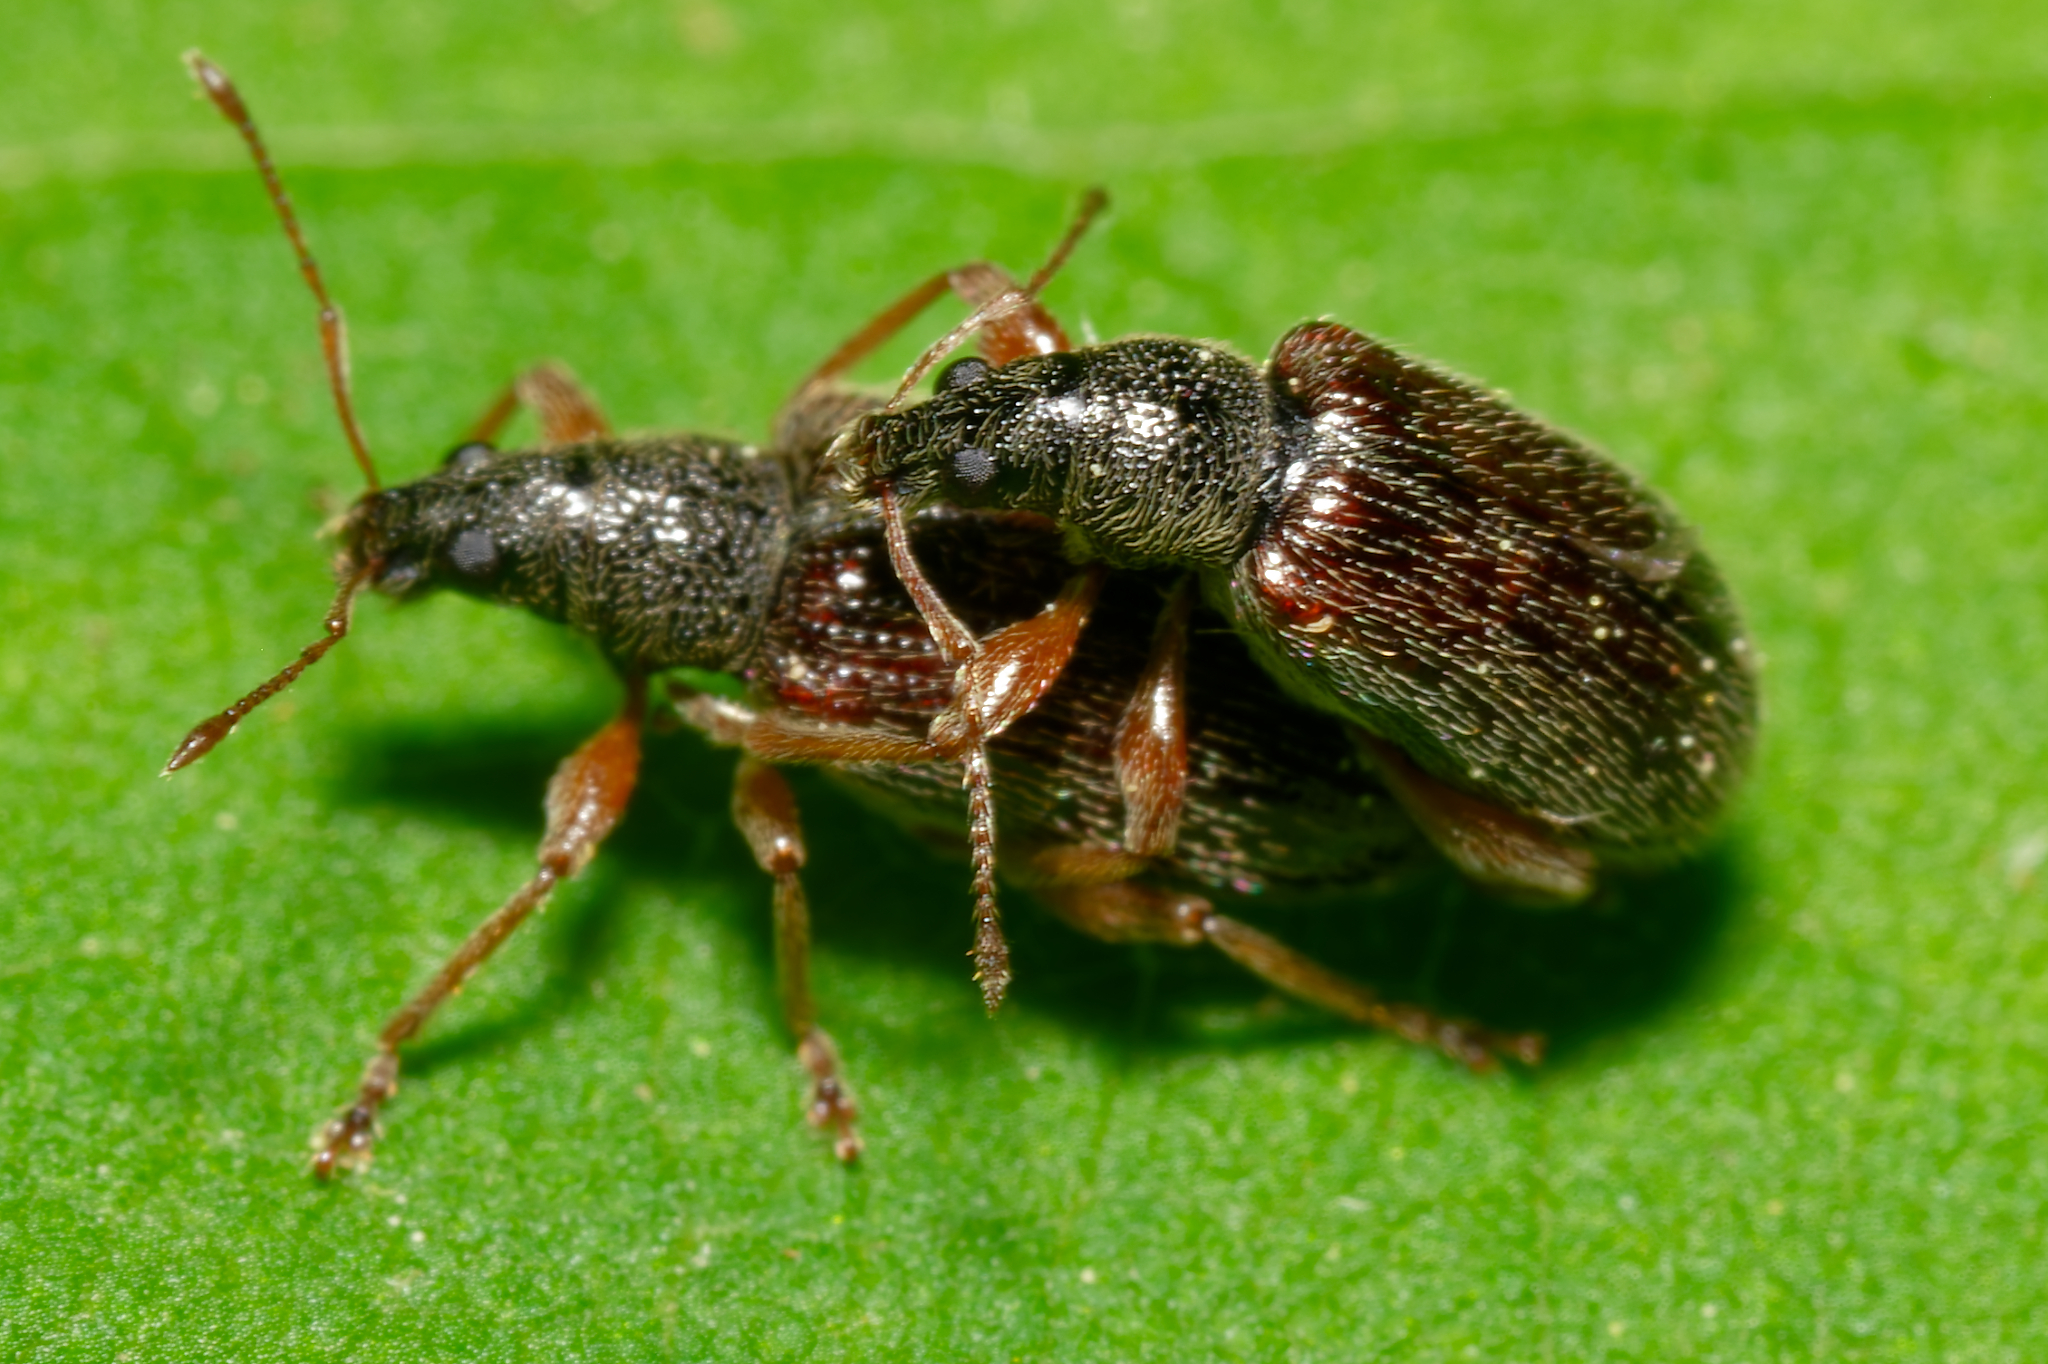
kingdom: Animalia
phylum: Arthropoda
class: Insecta
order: Coleoptera
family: Curculionidae
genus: Phyllobius
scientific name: Phyllobius oblongus
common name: Brown leaf weevil
